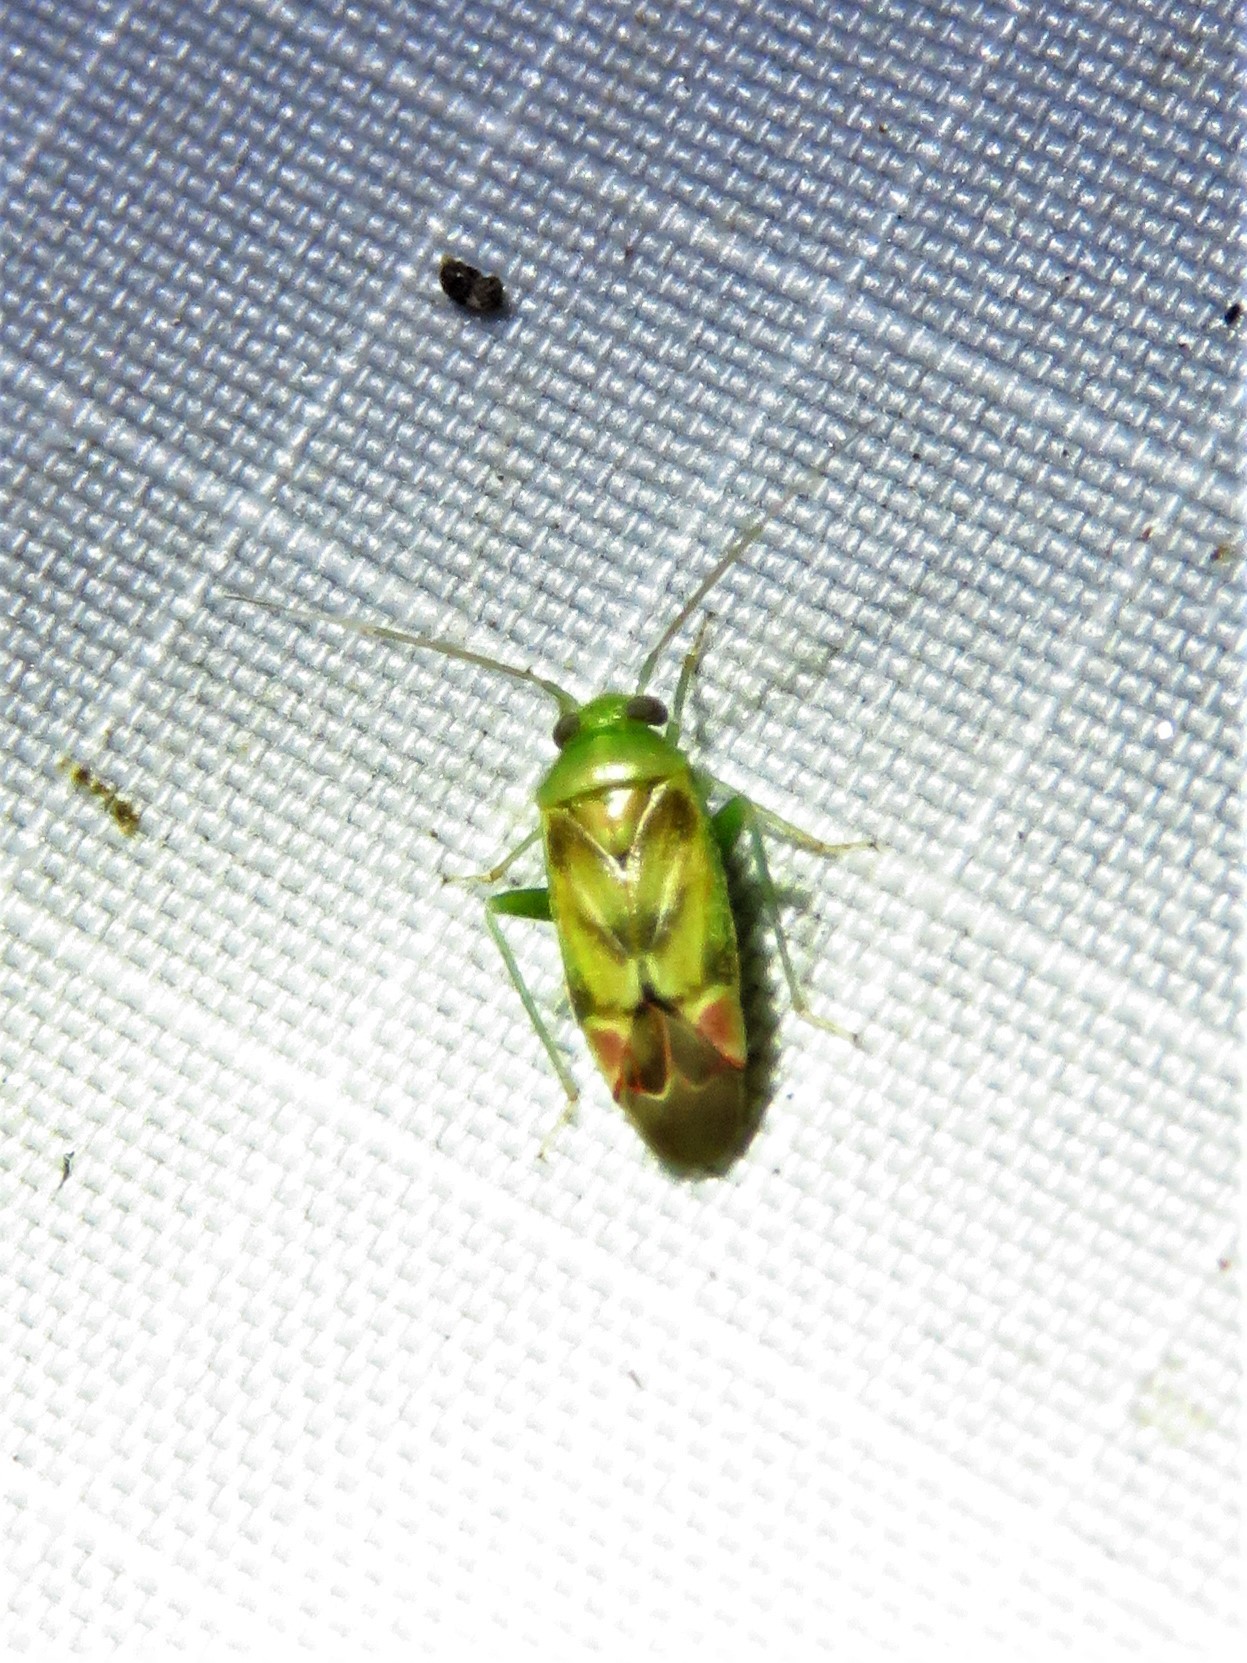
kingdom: Animalia
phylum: Arthropoda
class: Insecta
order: Hemiptera
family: Miridae
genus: Dichrooscytus
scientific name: Dichrooscytus
